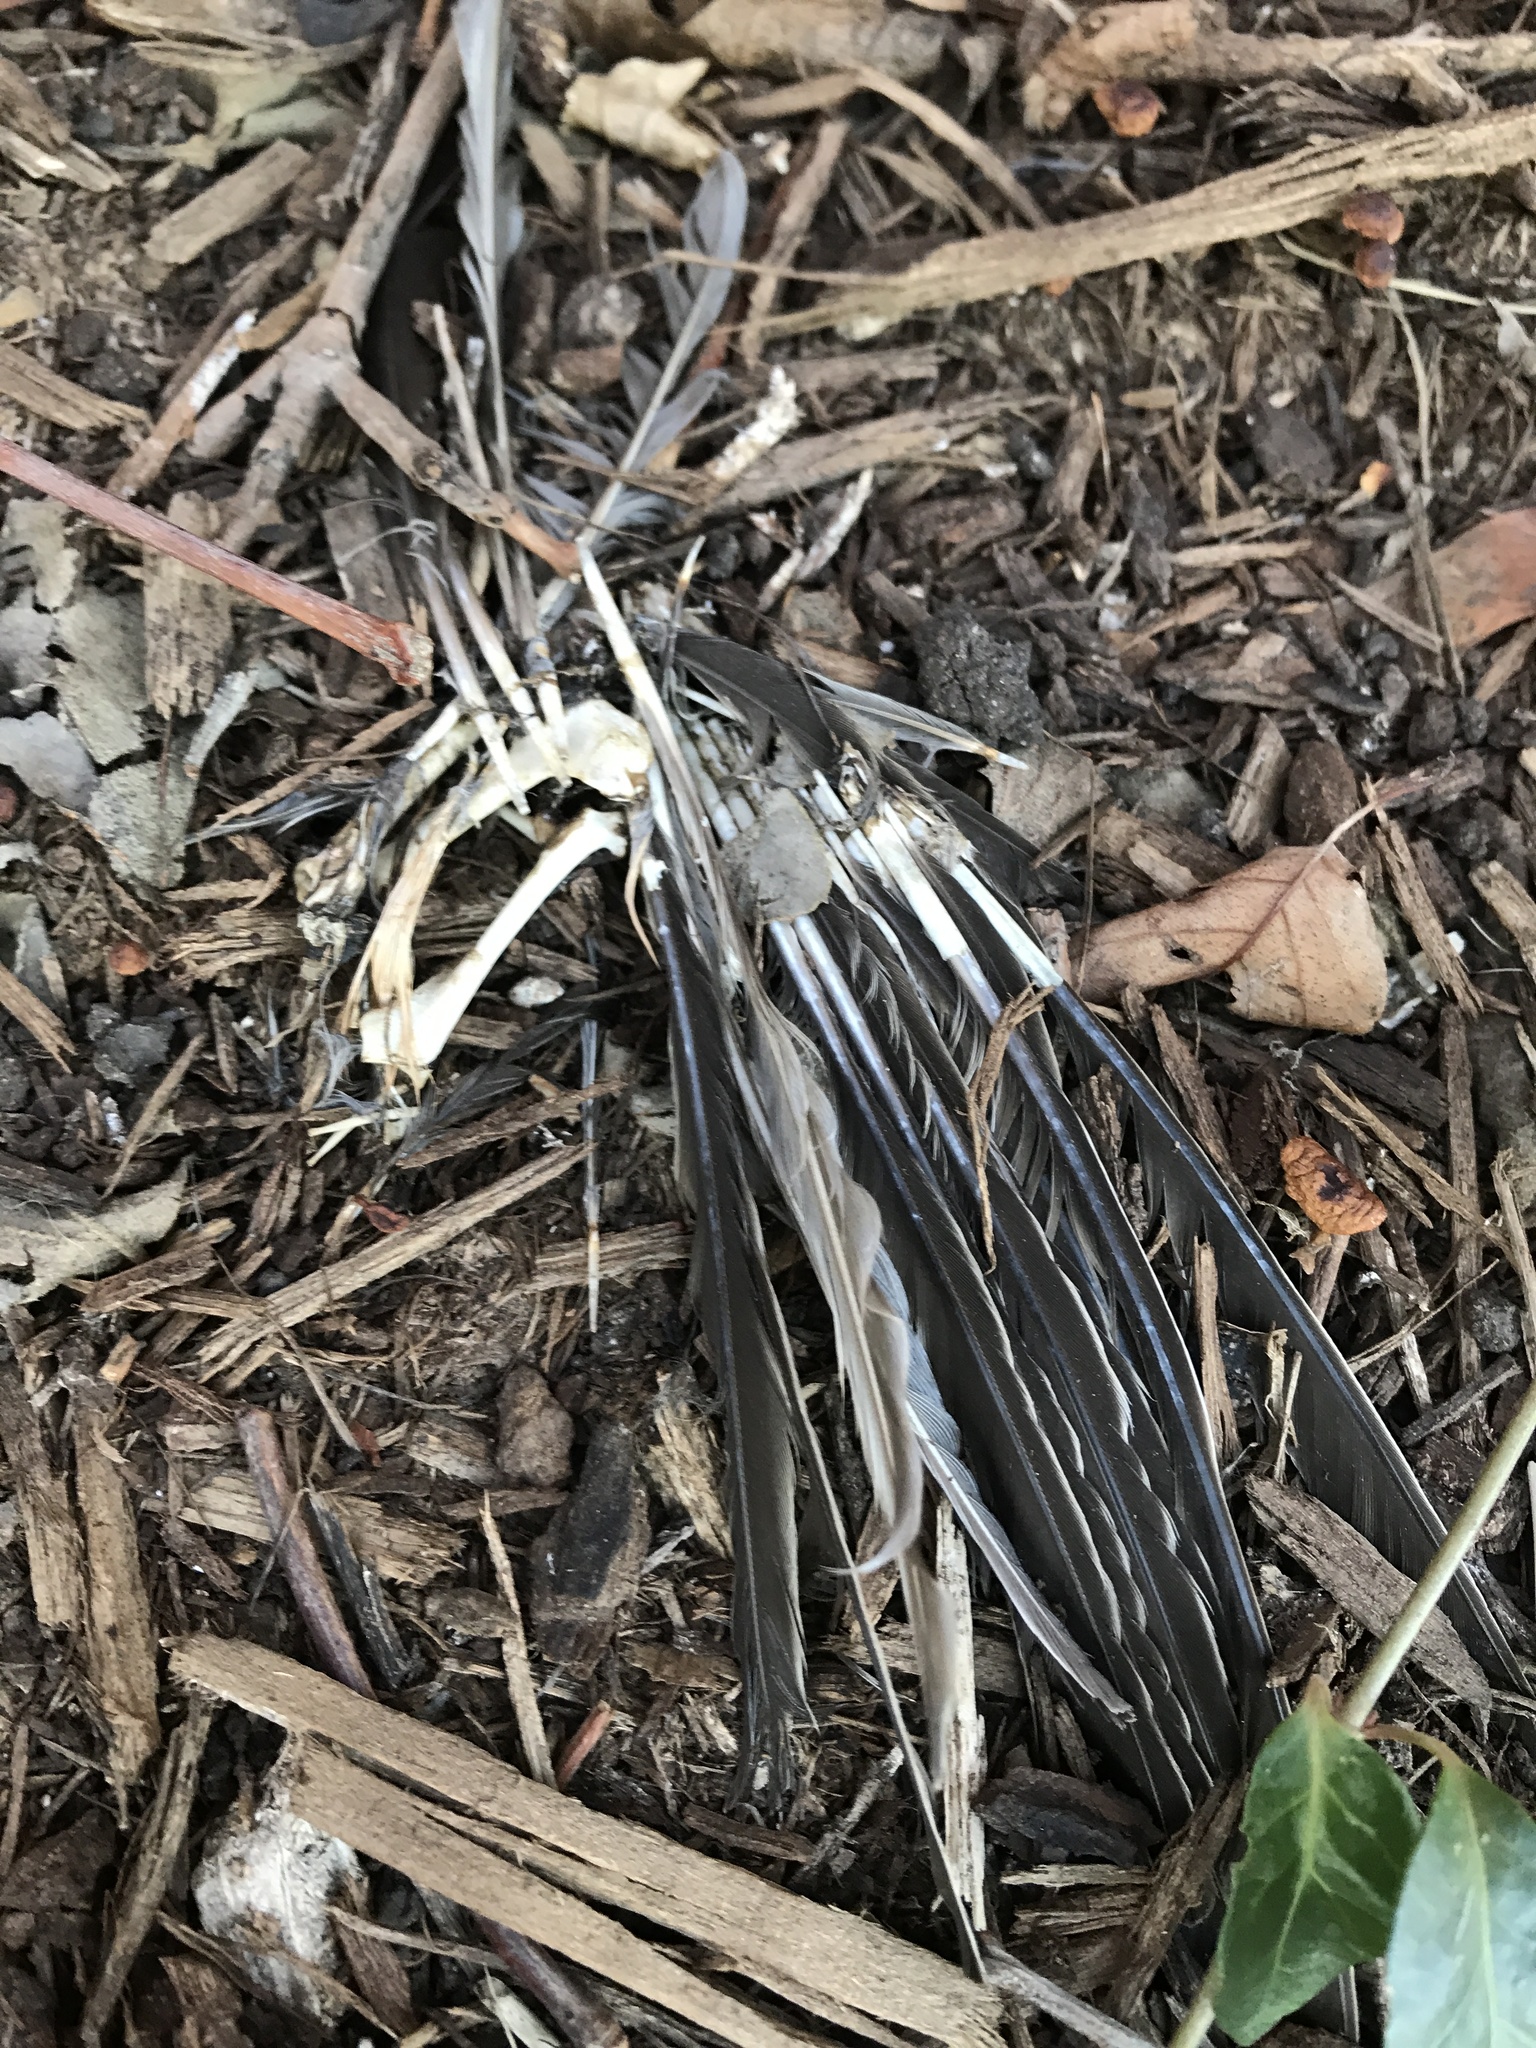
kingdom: Animalia
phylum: Chordata
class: Aves
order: Columbiformes
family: Columbidae
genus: Columba
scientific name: Columba livia
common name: Rock pigeon
